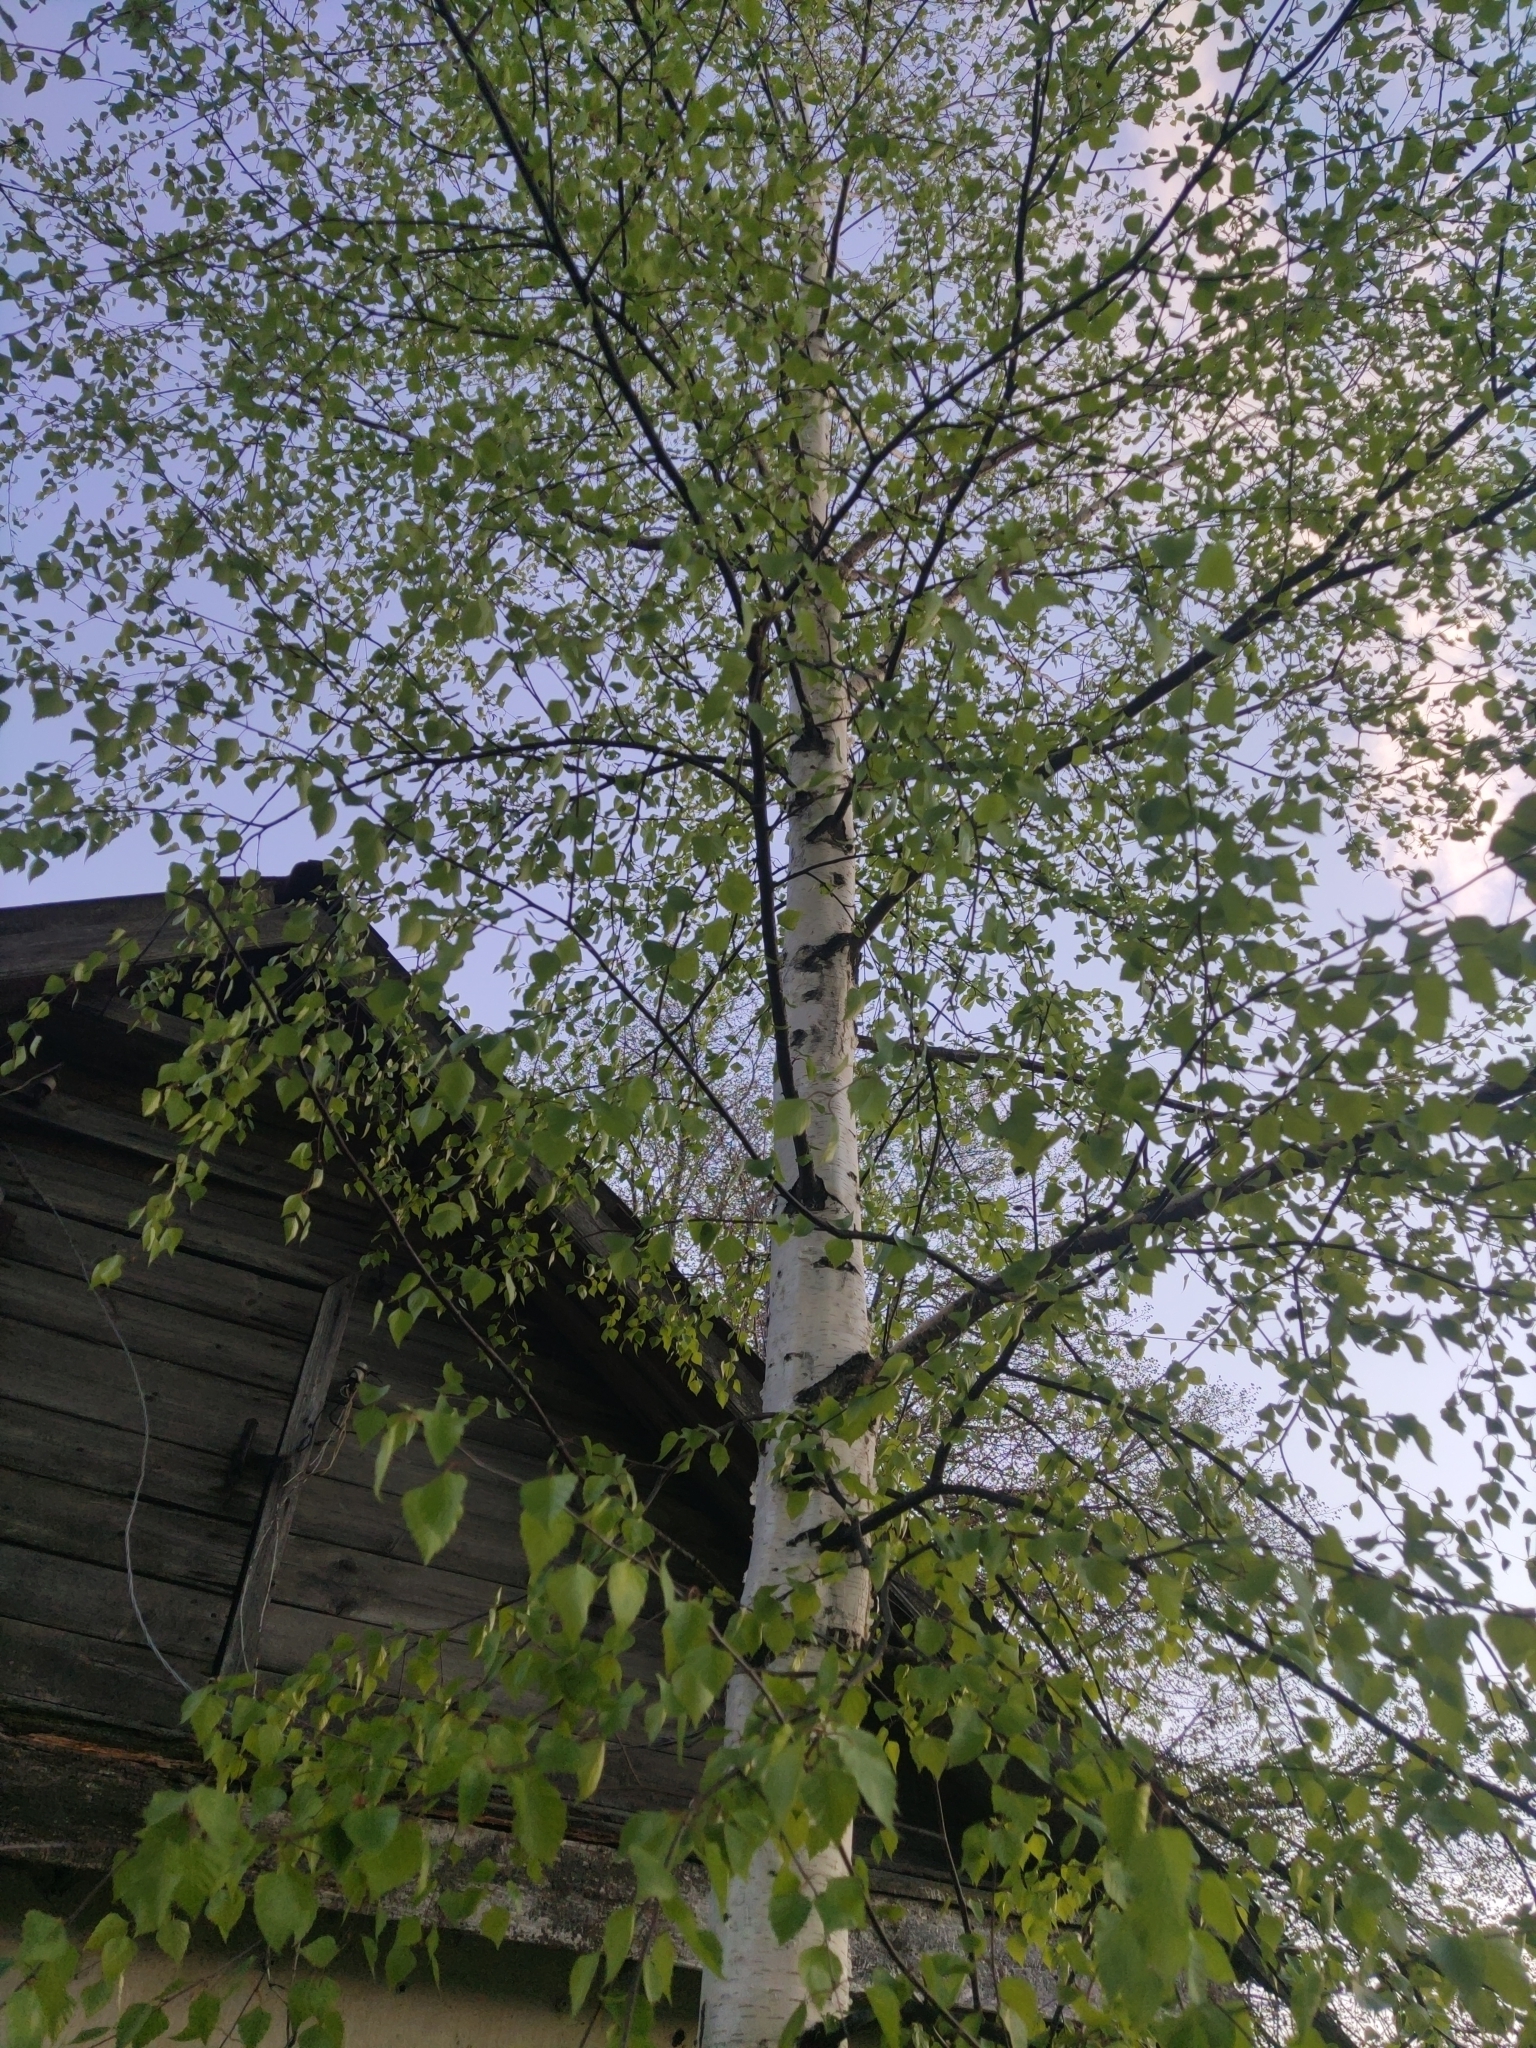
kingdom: Plantae
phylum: Tracheophyta
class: Magnoliopsida
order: Fagales
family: Betulaceae
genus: Betula
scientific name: Betula pendula
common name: Silver birch
